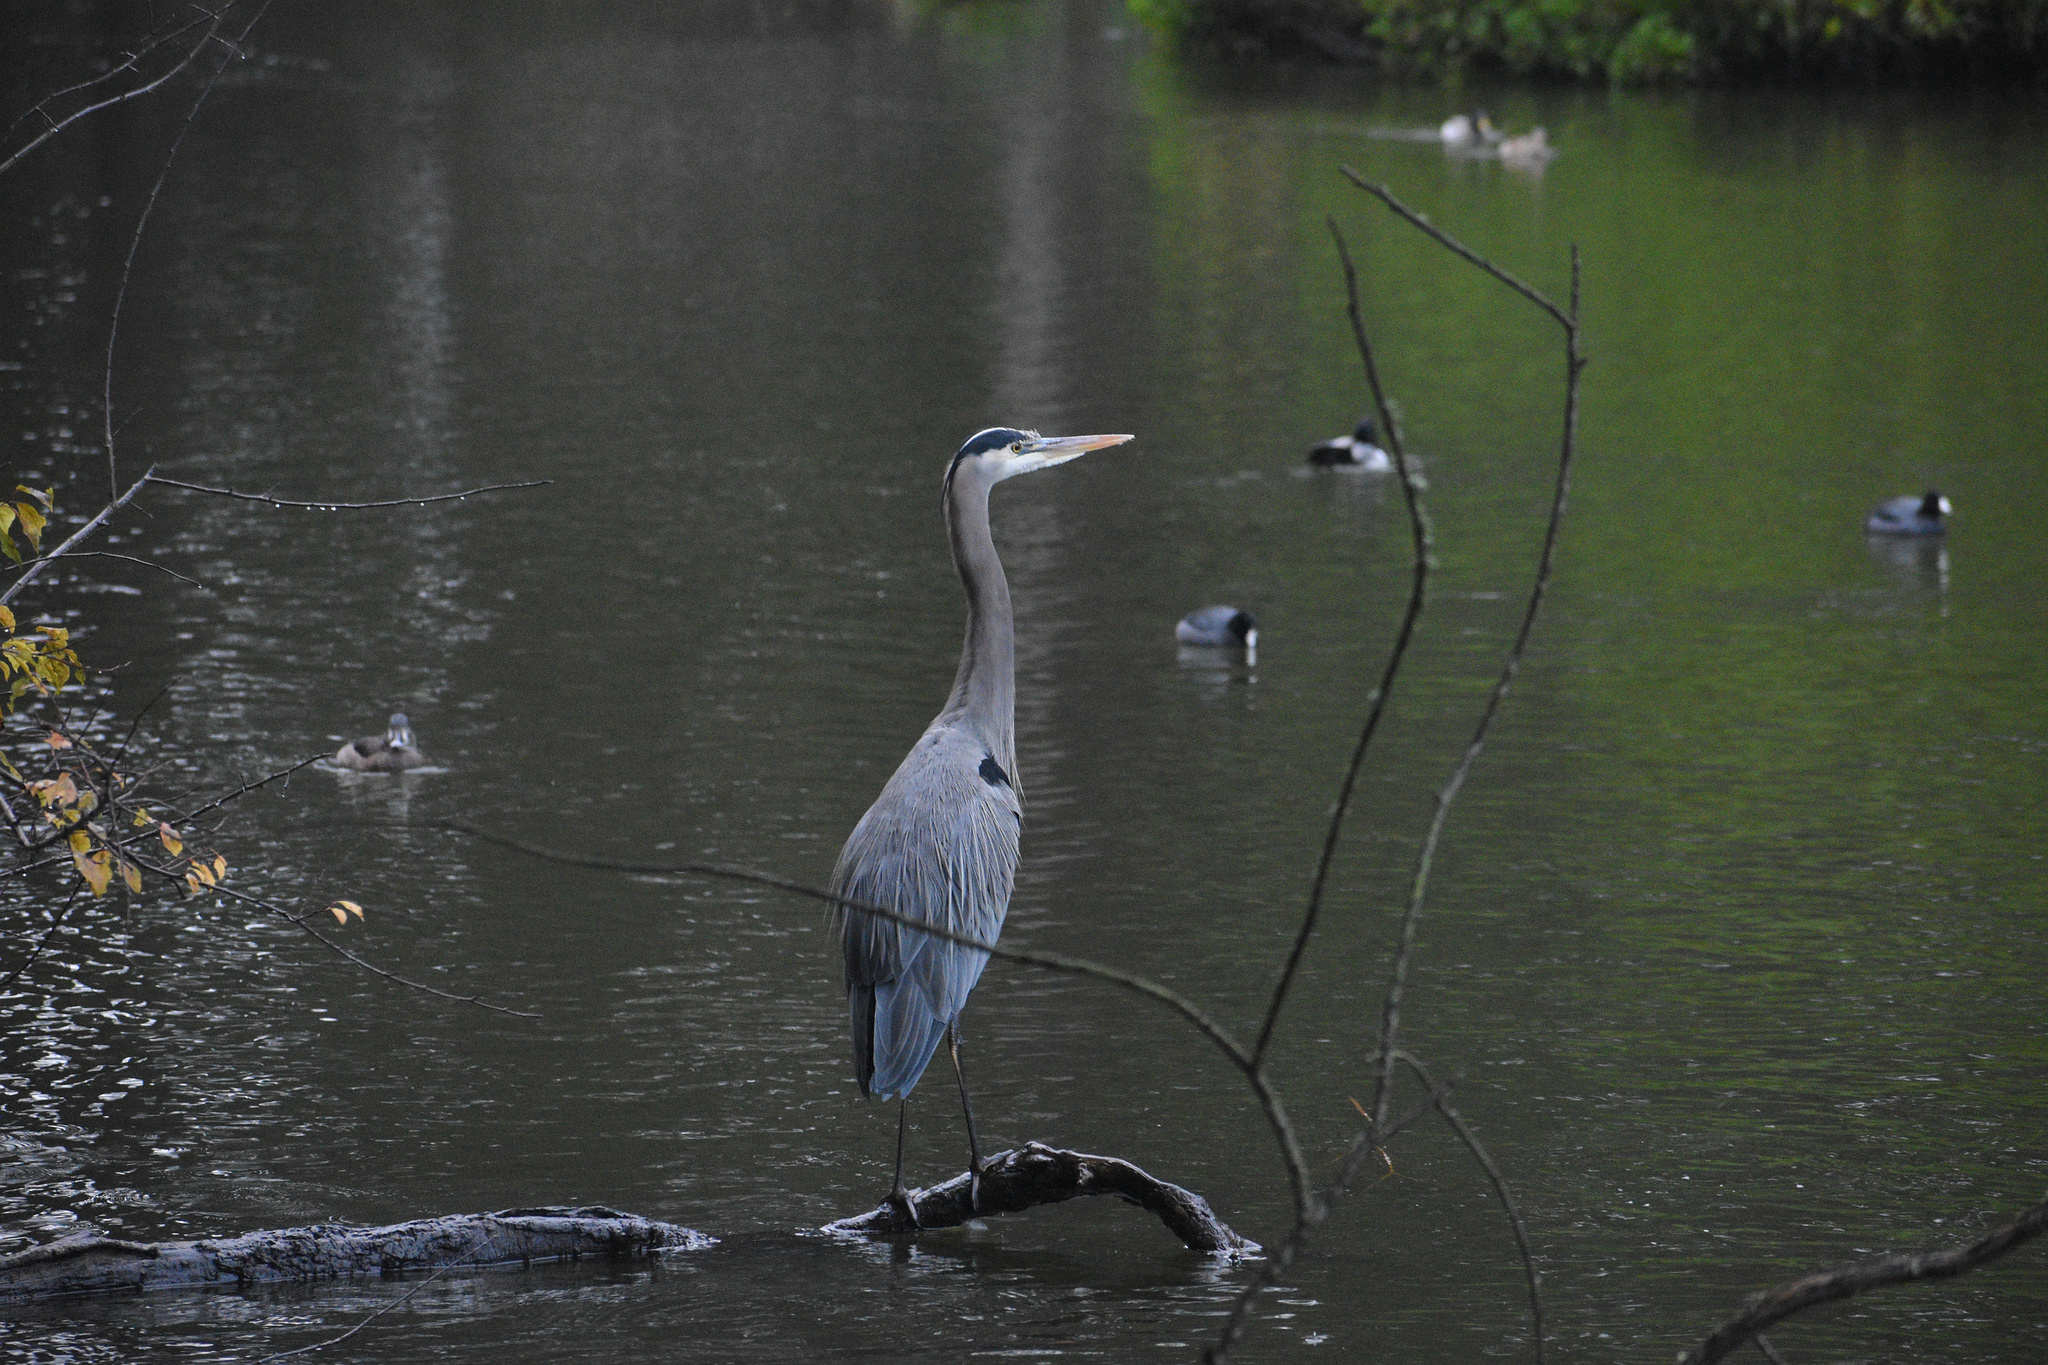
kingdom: Animalia
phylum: Chordata
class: Aves
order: Pelecaniformes
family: Ardeidae
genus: Ardea
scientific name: Ardea herodias
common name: Great blue heron
